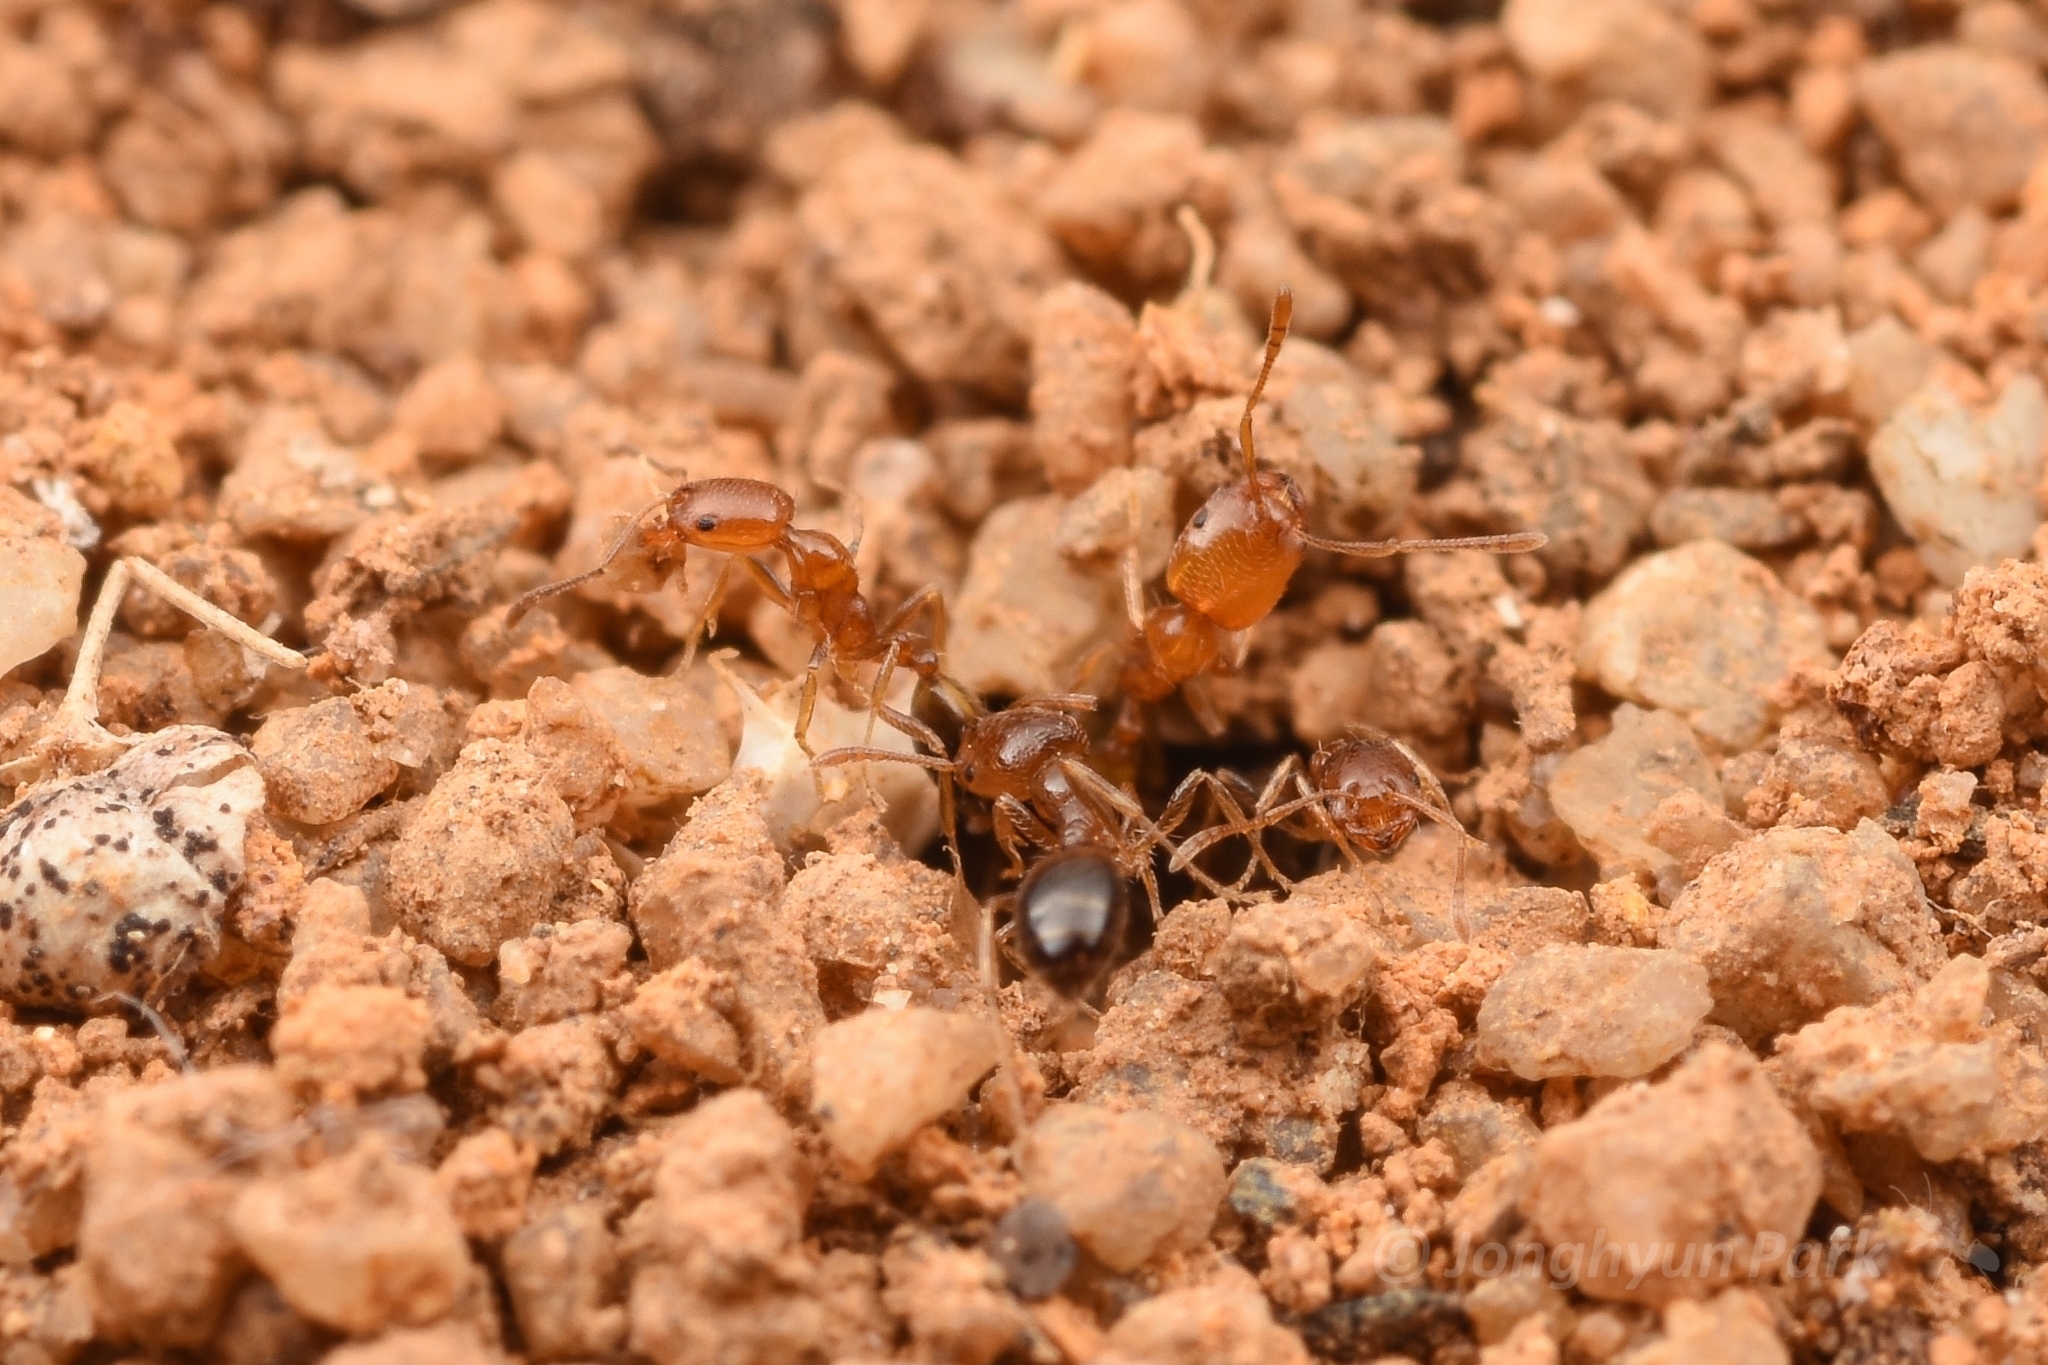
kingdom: Animalia
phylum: Arthropoda
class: Insecta
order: Hymenoptera
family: Formicidae
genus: Monomorium
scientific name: Monomorium destructor
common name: Destructive trailing ant
